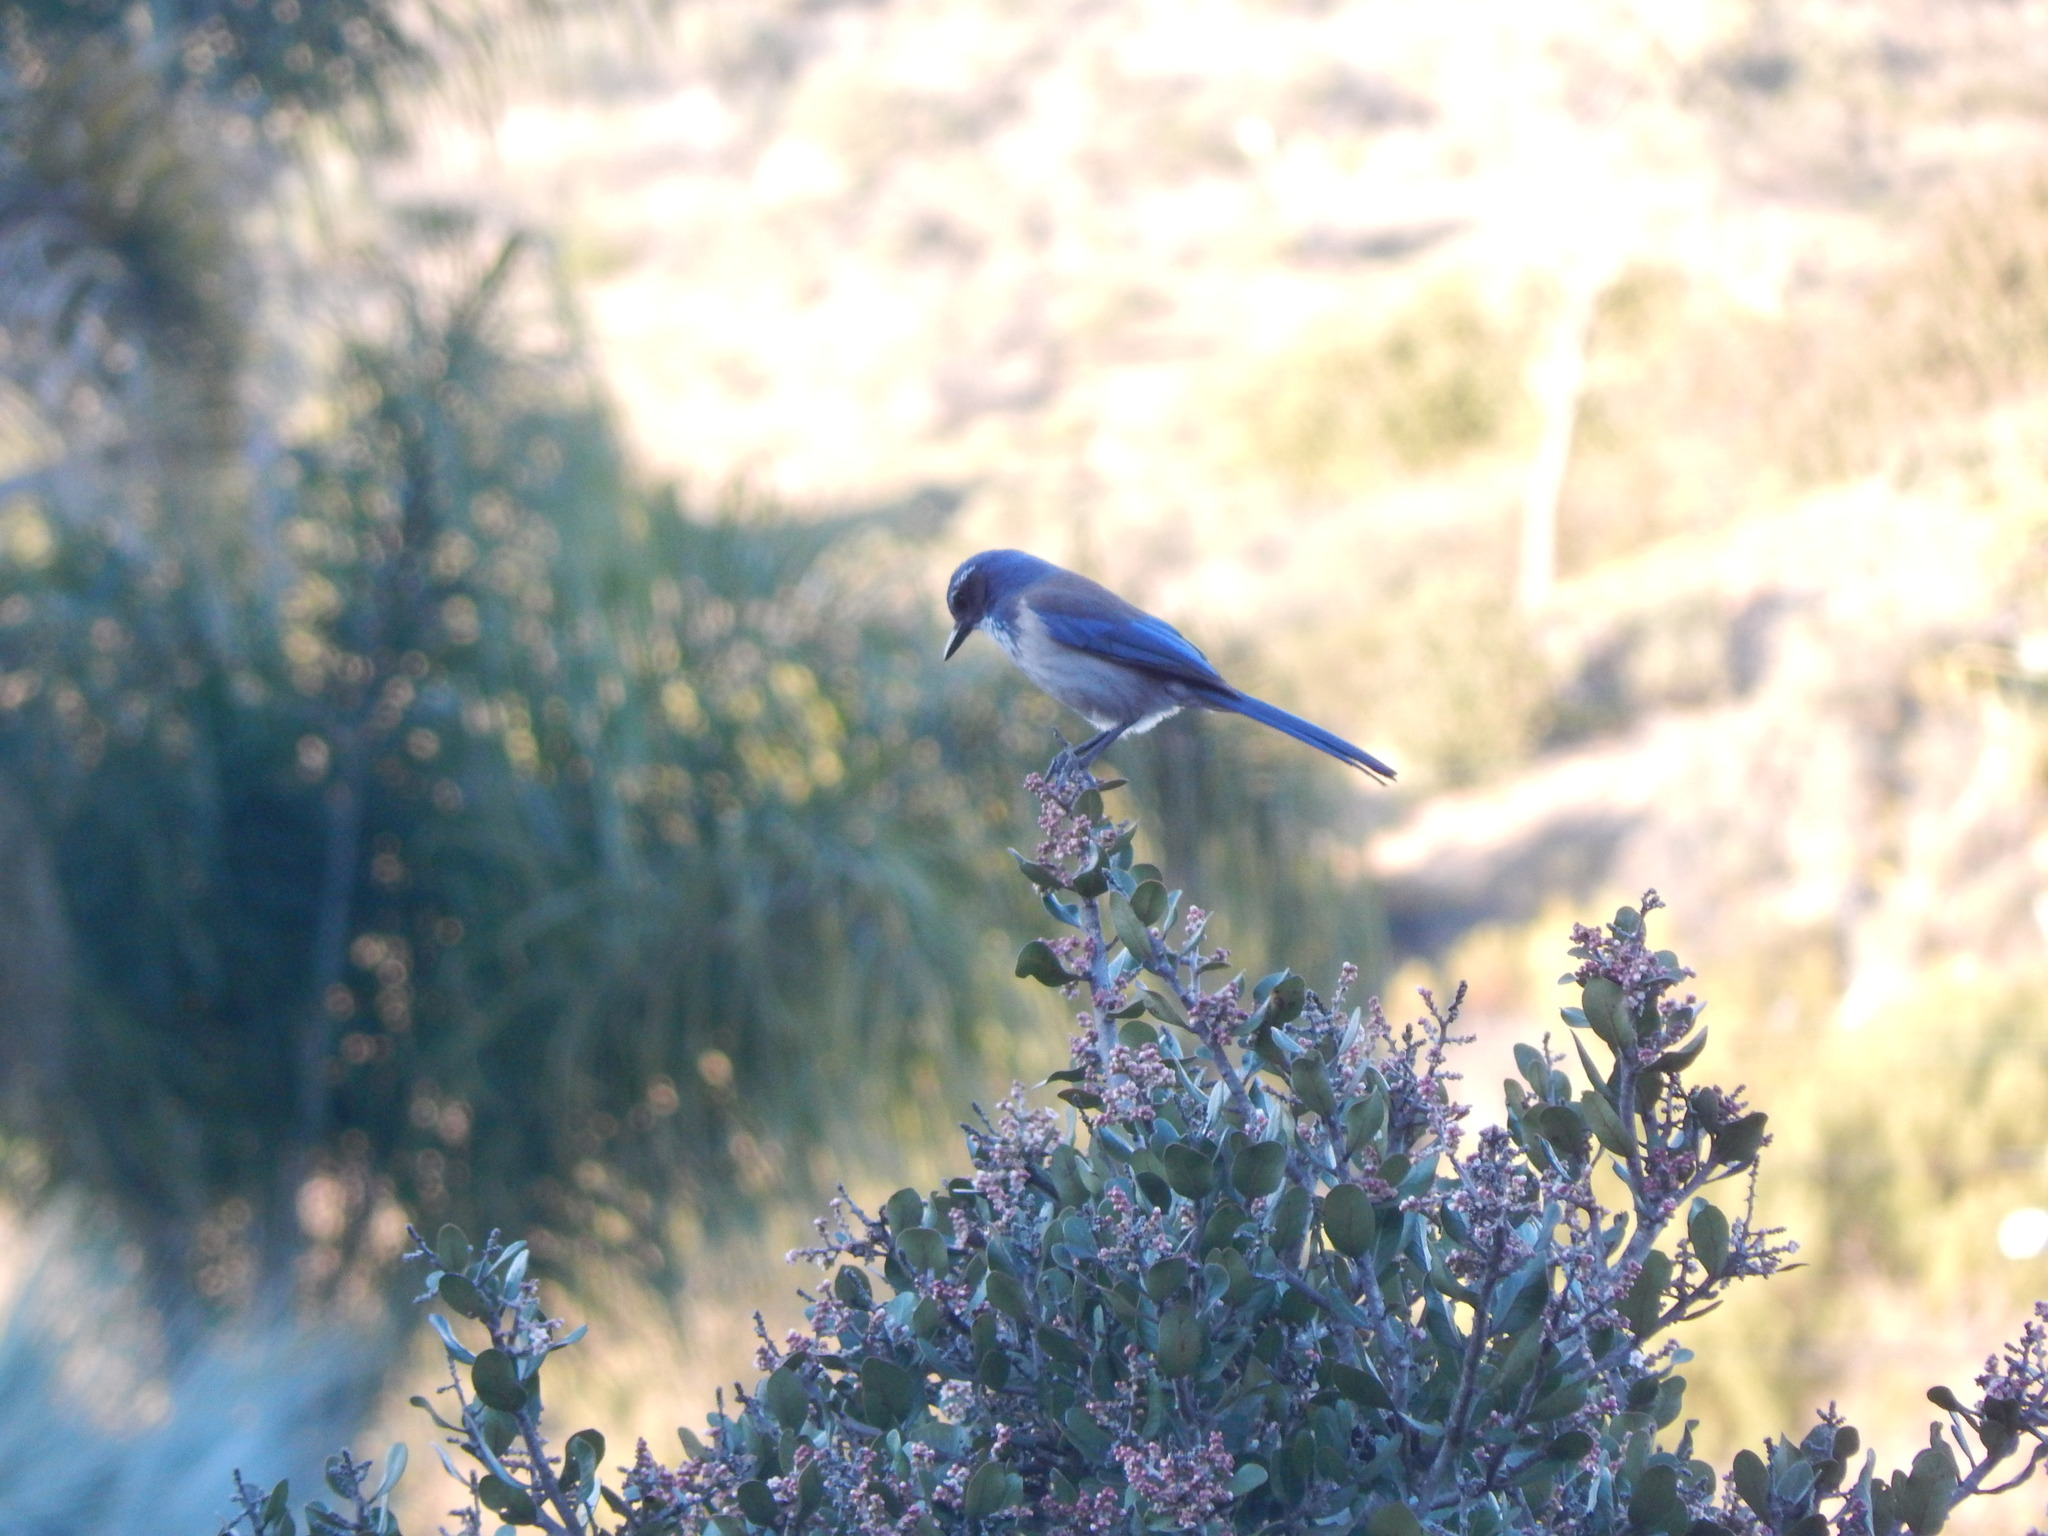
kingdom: Animalia
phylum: Chordata
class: Aves
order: Passeriformes
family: Corvidae
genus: Aphelocoma
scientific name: Aphelocoma californica
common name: California scrub-jay
